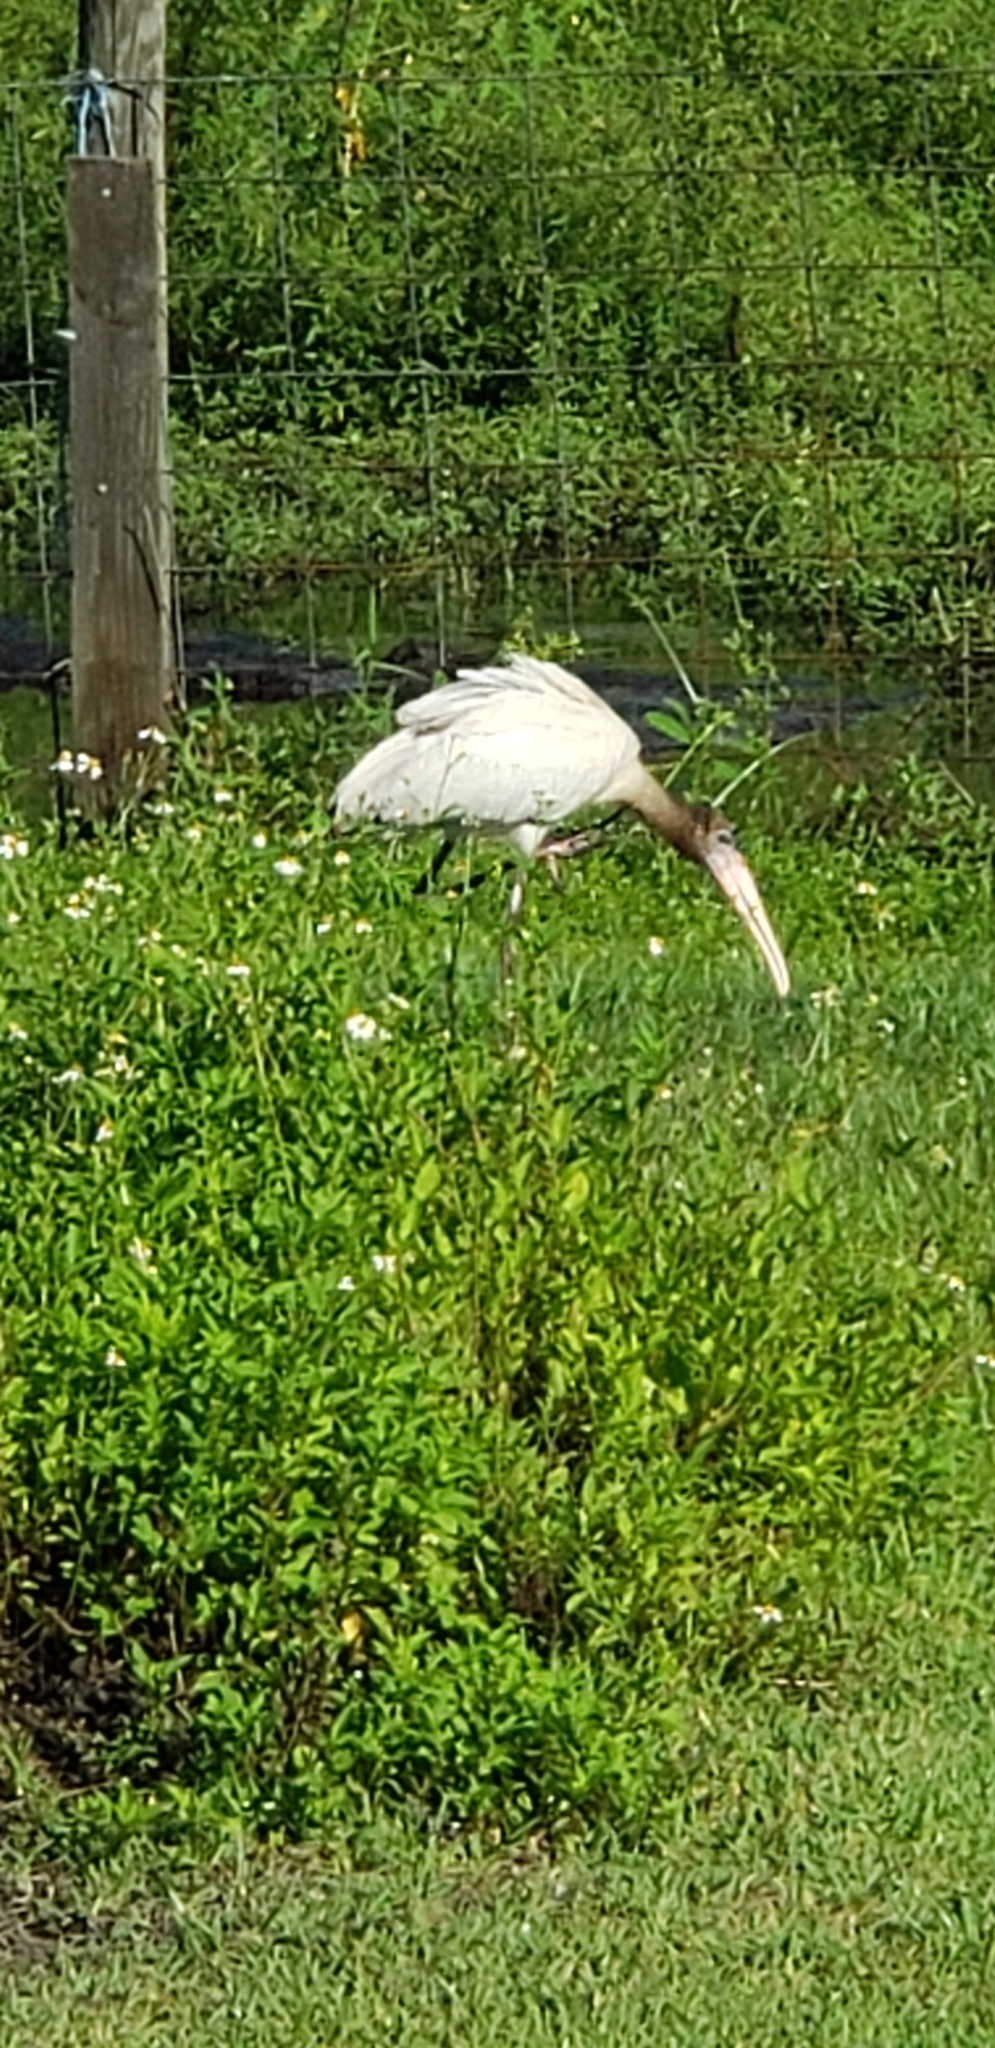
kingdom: Animalia
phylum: Chordata
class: Aves
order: Ciconiiformes
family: Ciconiidae
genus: Mycteria
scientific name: Mycteria americana
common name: Wood stork
